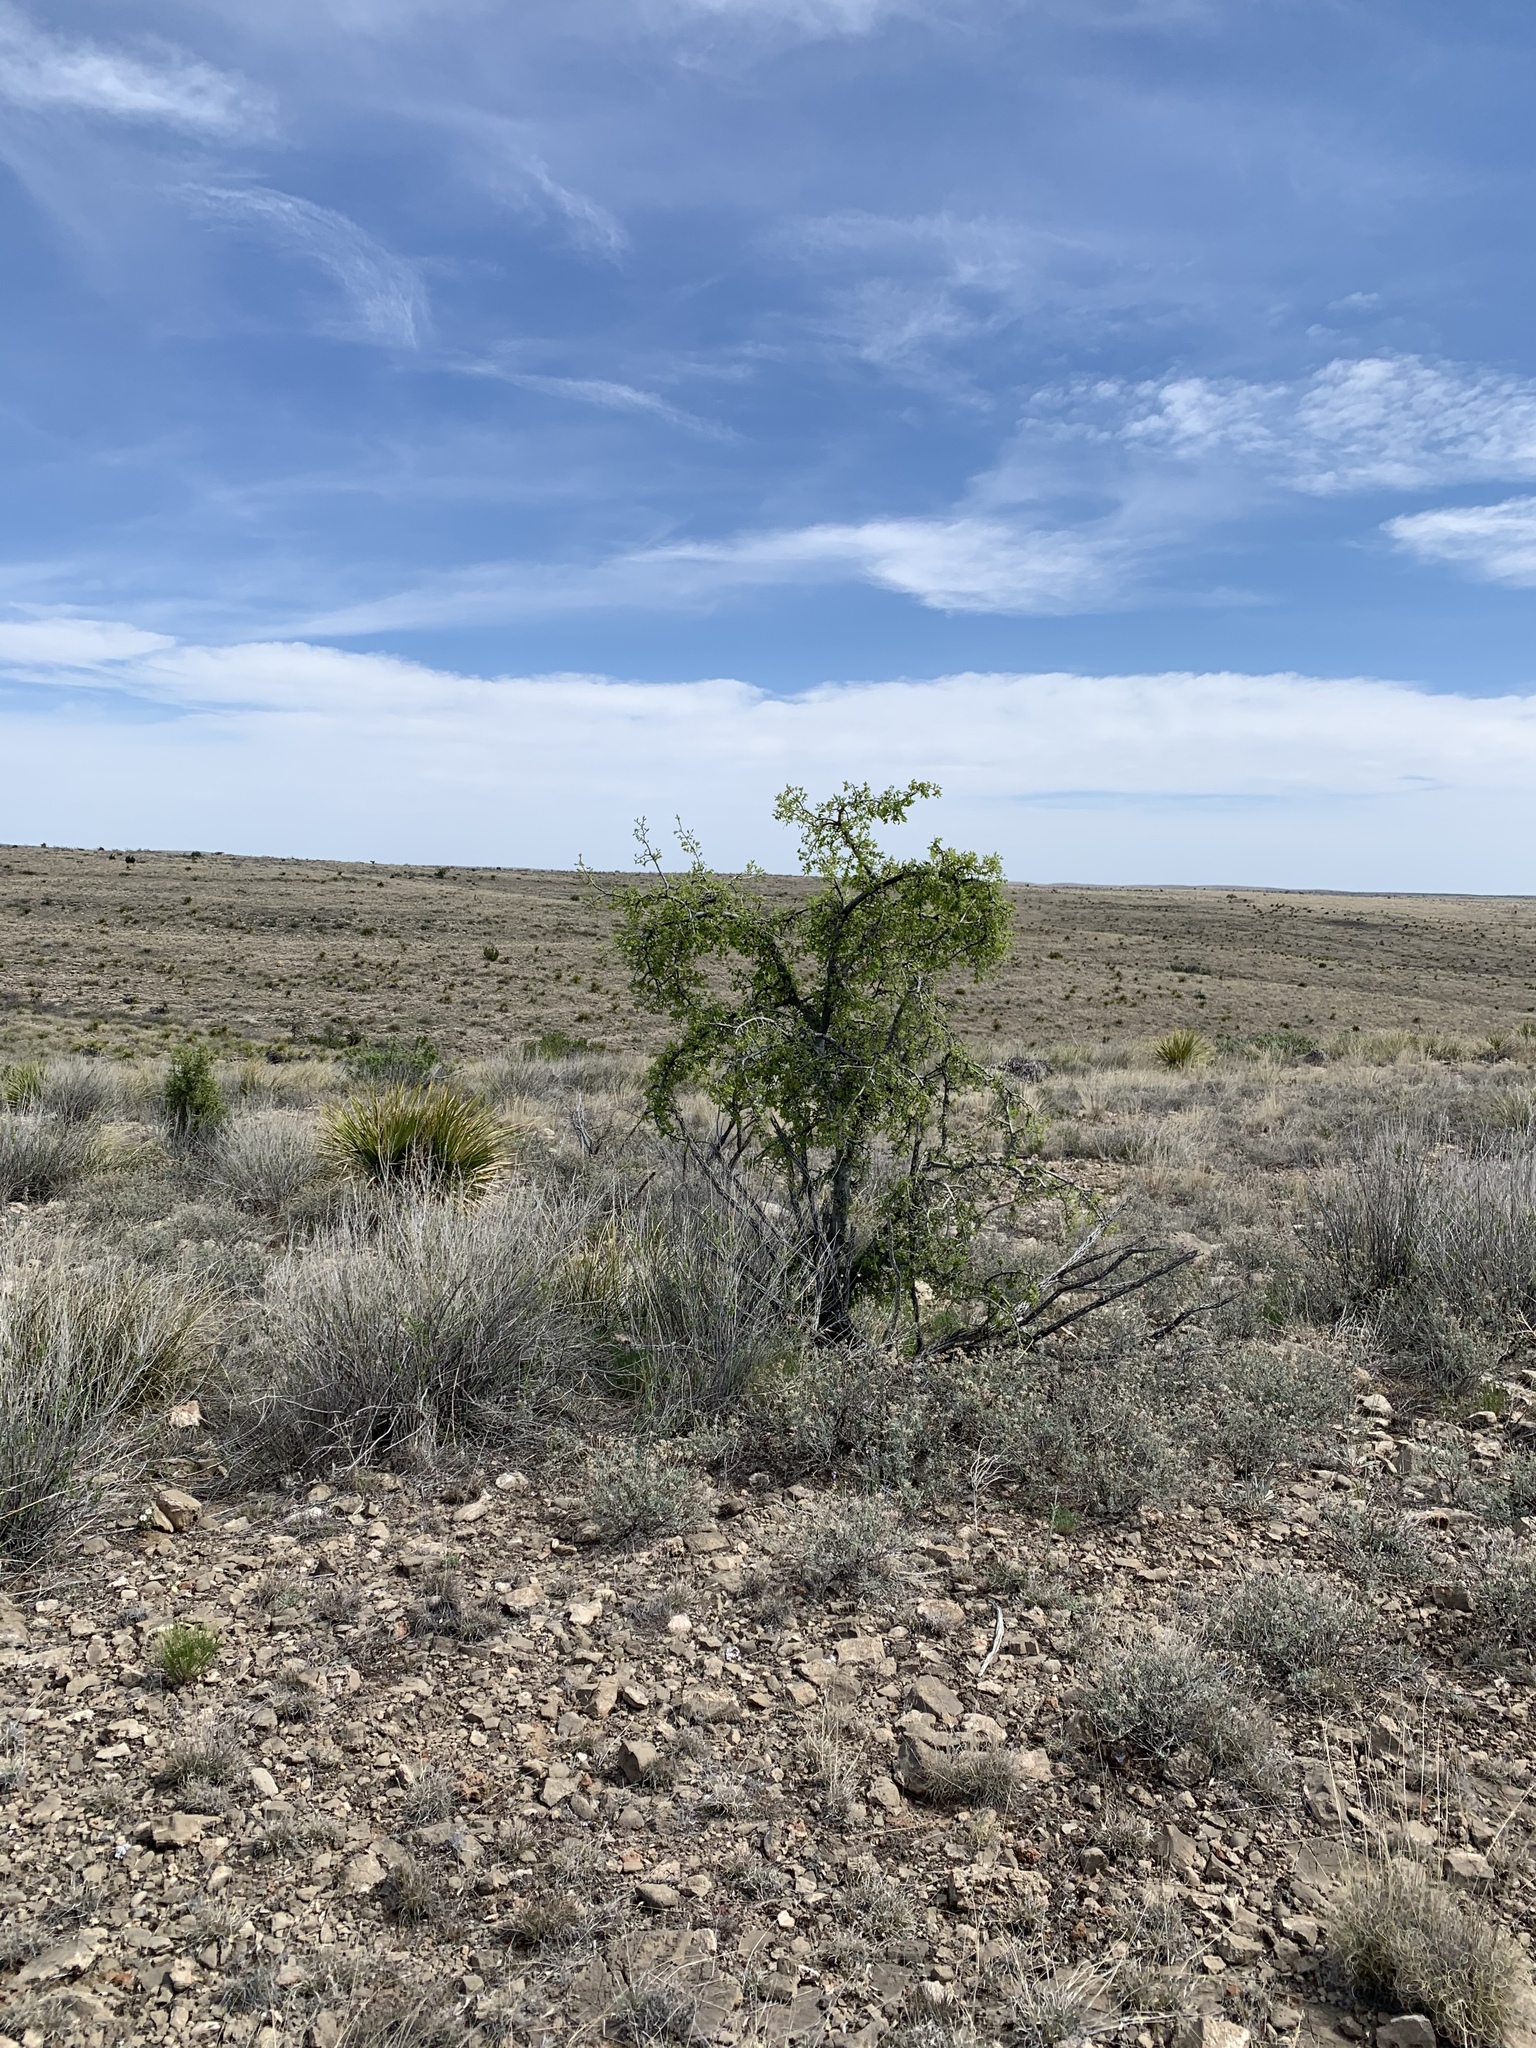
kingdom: Plantae
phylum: Tracheophyta
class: Magnoliopsida
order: Rosales
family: Cannabaceae
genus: Celtis
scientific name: Celtis reticulata
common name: Netleaf hackberry
